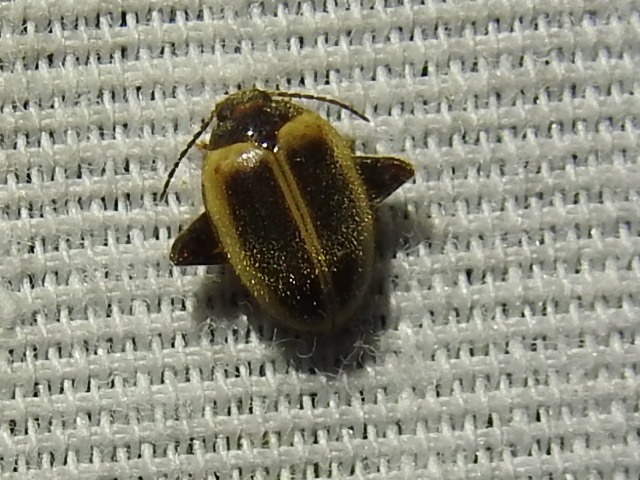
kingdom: Animalia
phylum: Arthropoda
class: Insecta
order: Coleoptera
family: Scirtidae
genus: Ora
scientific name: Ora discoidea
